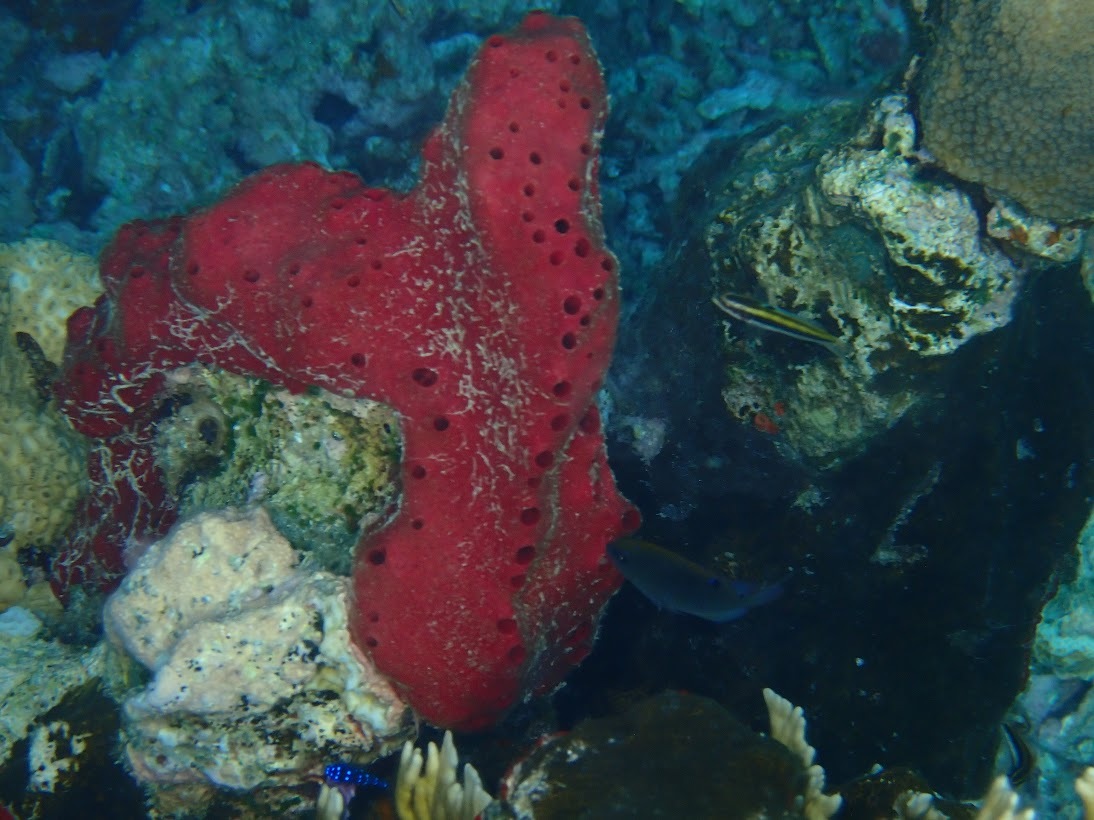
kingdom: Animalia
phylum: Porifera
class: Demospongiae
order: Haplosclerida
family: Niphatidae
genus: Amphimedon
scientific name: Amphimedon compressa
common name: Red sponge
